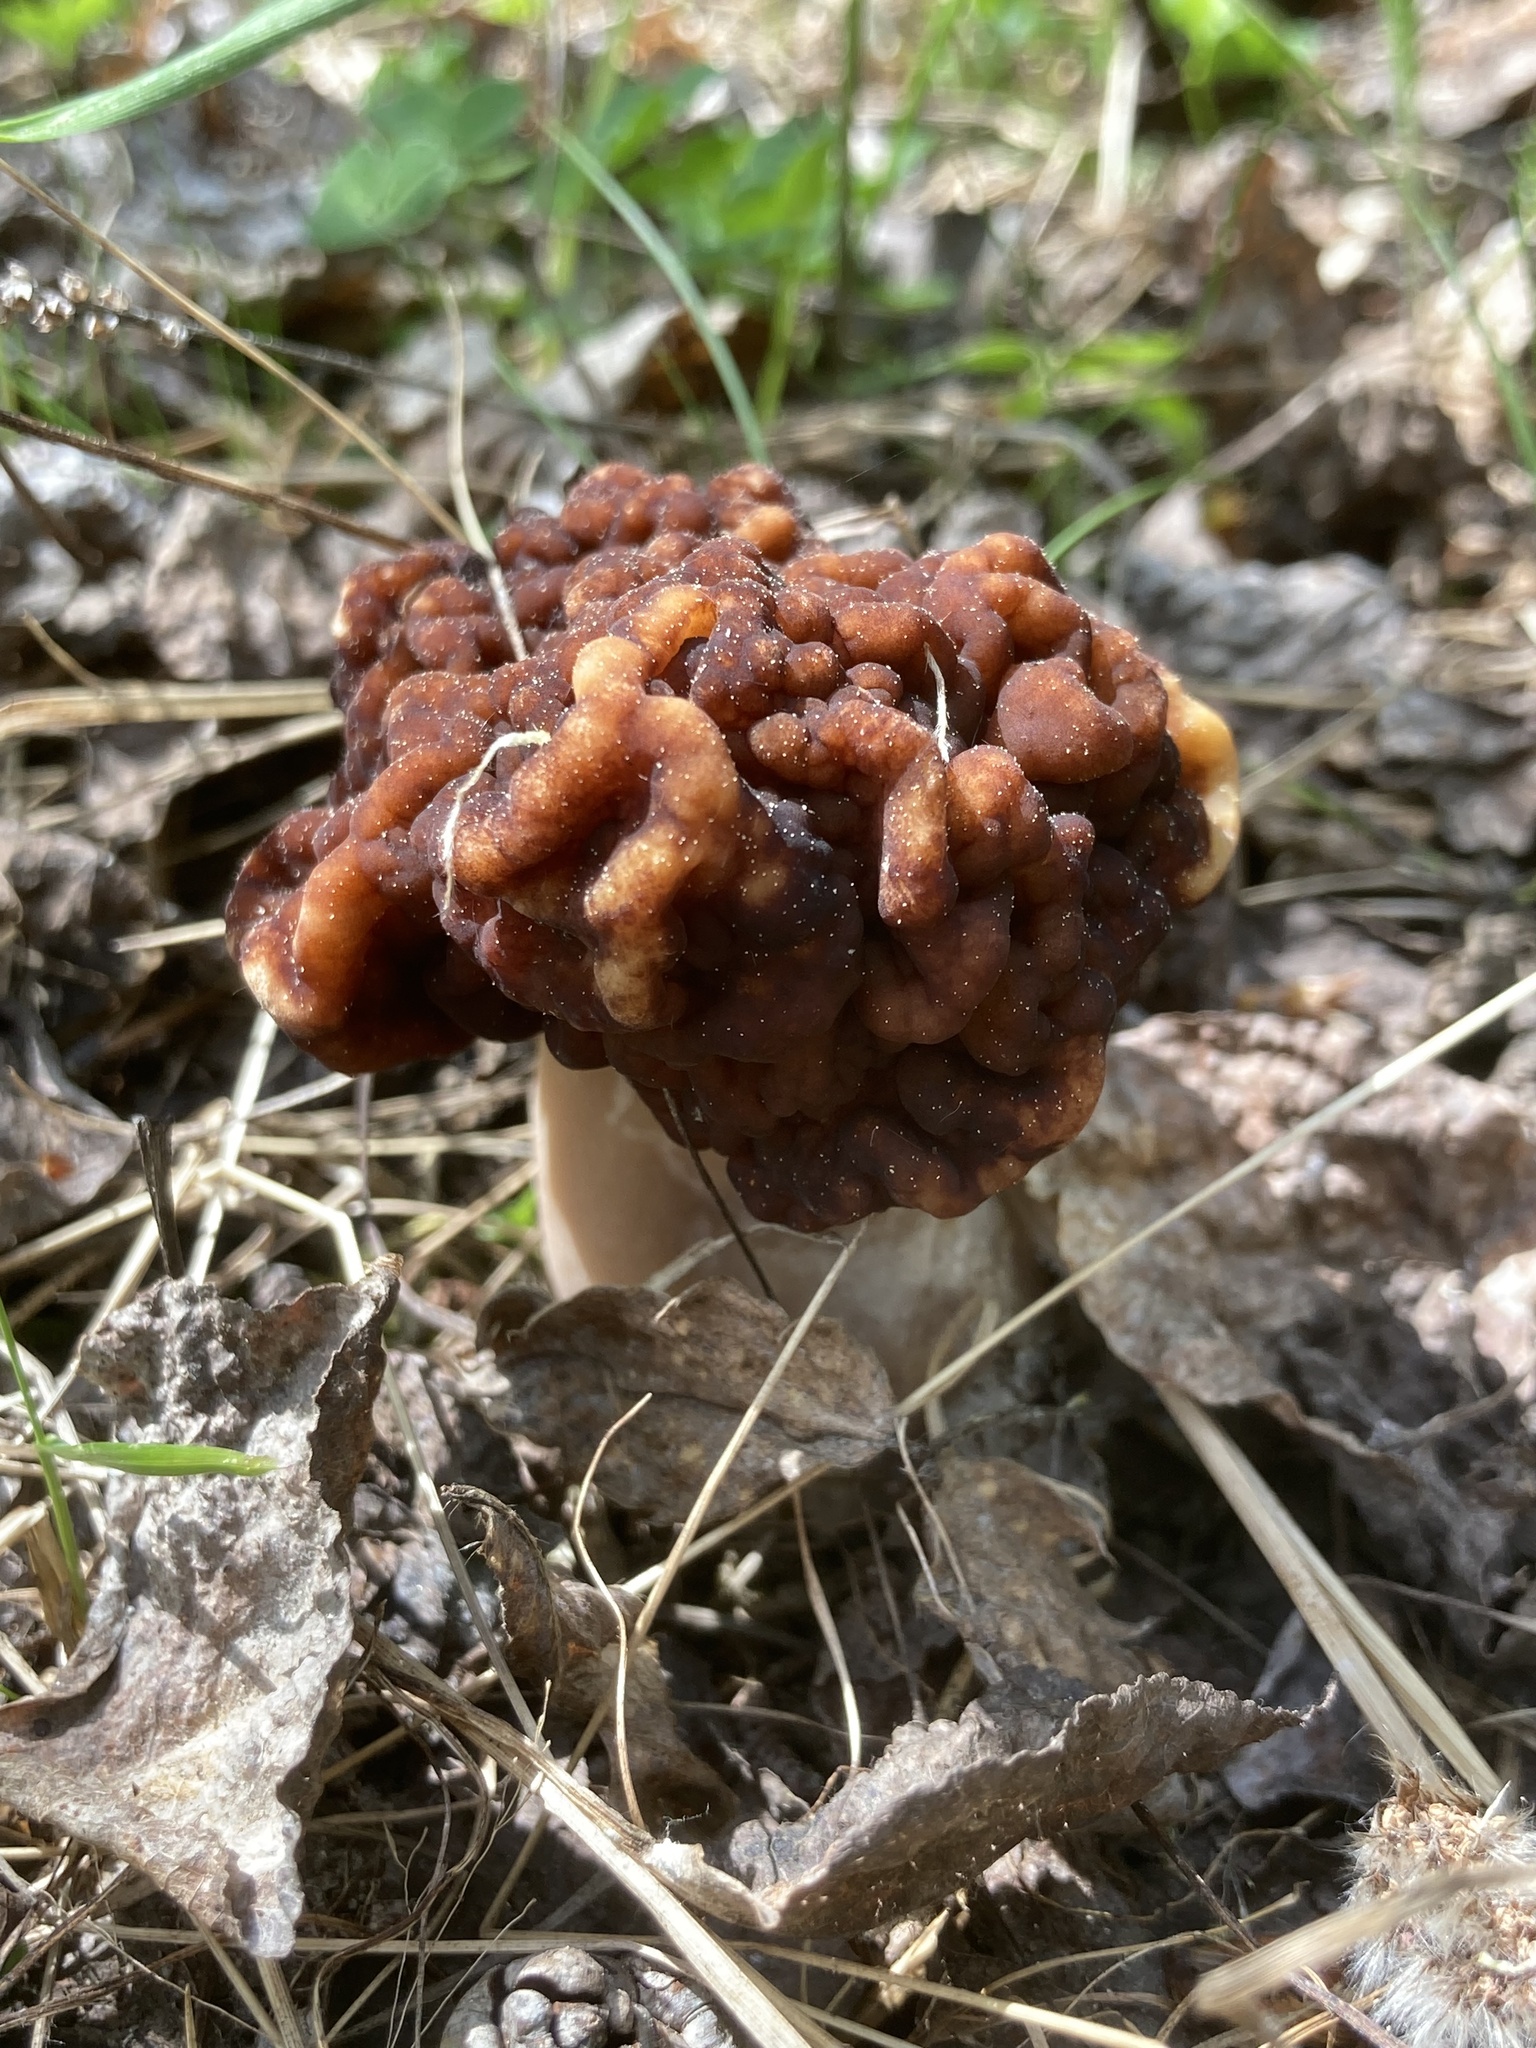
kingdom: Fungi
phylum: Ascomycota
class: Pezizomycetes
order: Pezizales
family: Discinaceae
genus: Gyromitra
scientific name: Gyromitra esculenta
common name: False morel
